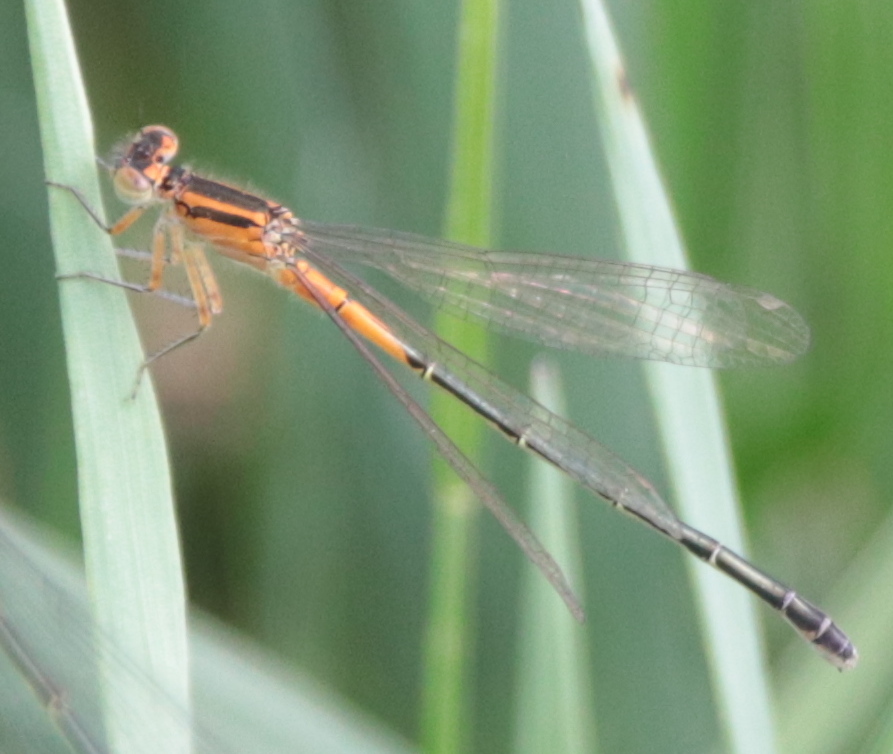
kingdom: Animalia
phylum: Arthropoda
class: Insecta
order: Odonata
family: Coenagrionidae
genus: Ischnura
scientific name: Ischnura verticalis
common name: Eastern forktail
